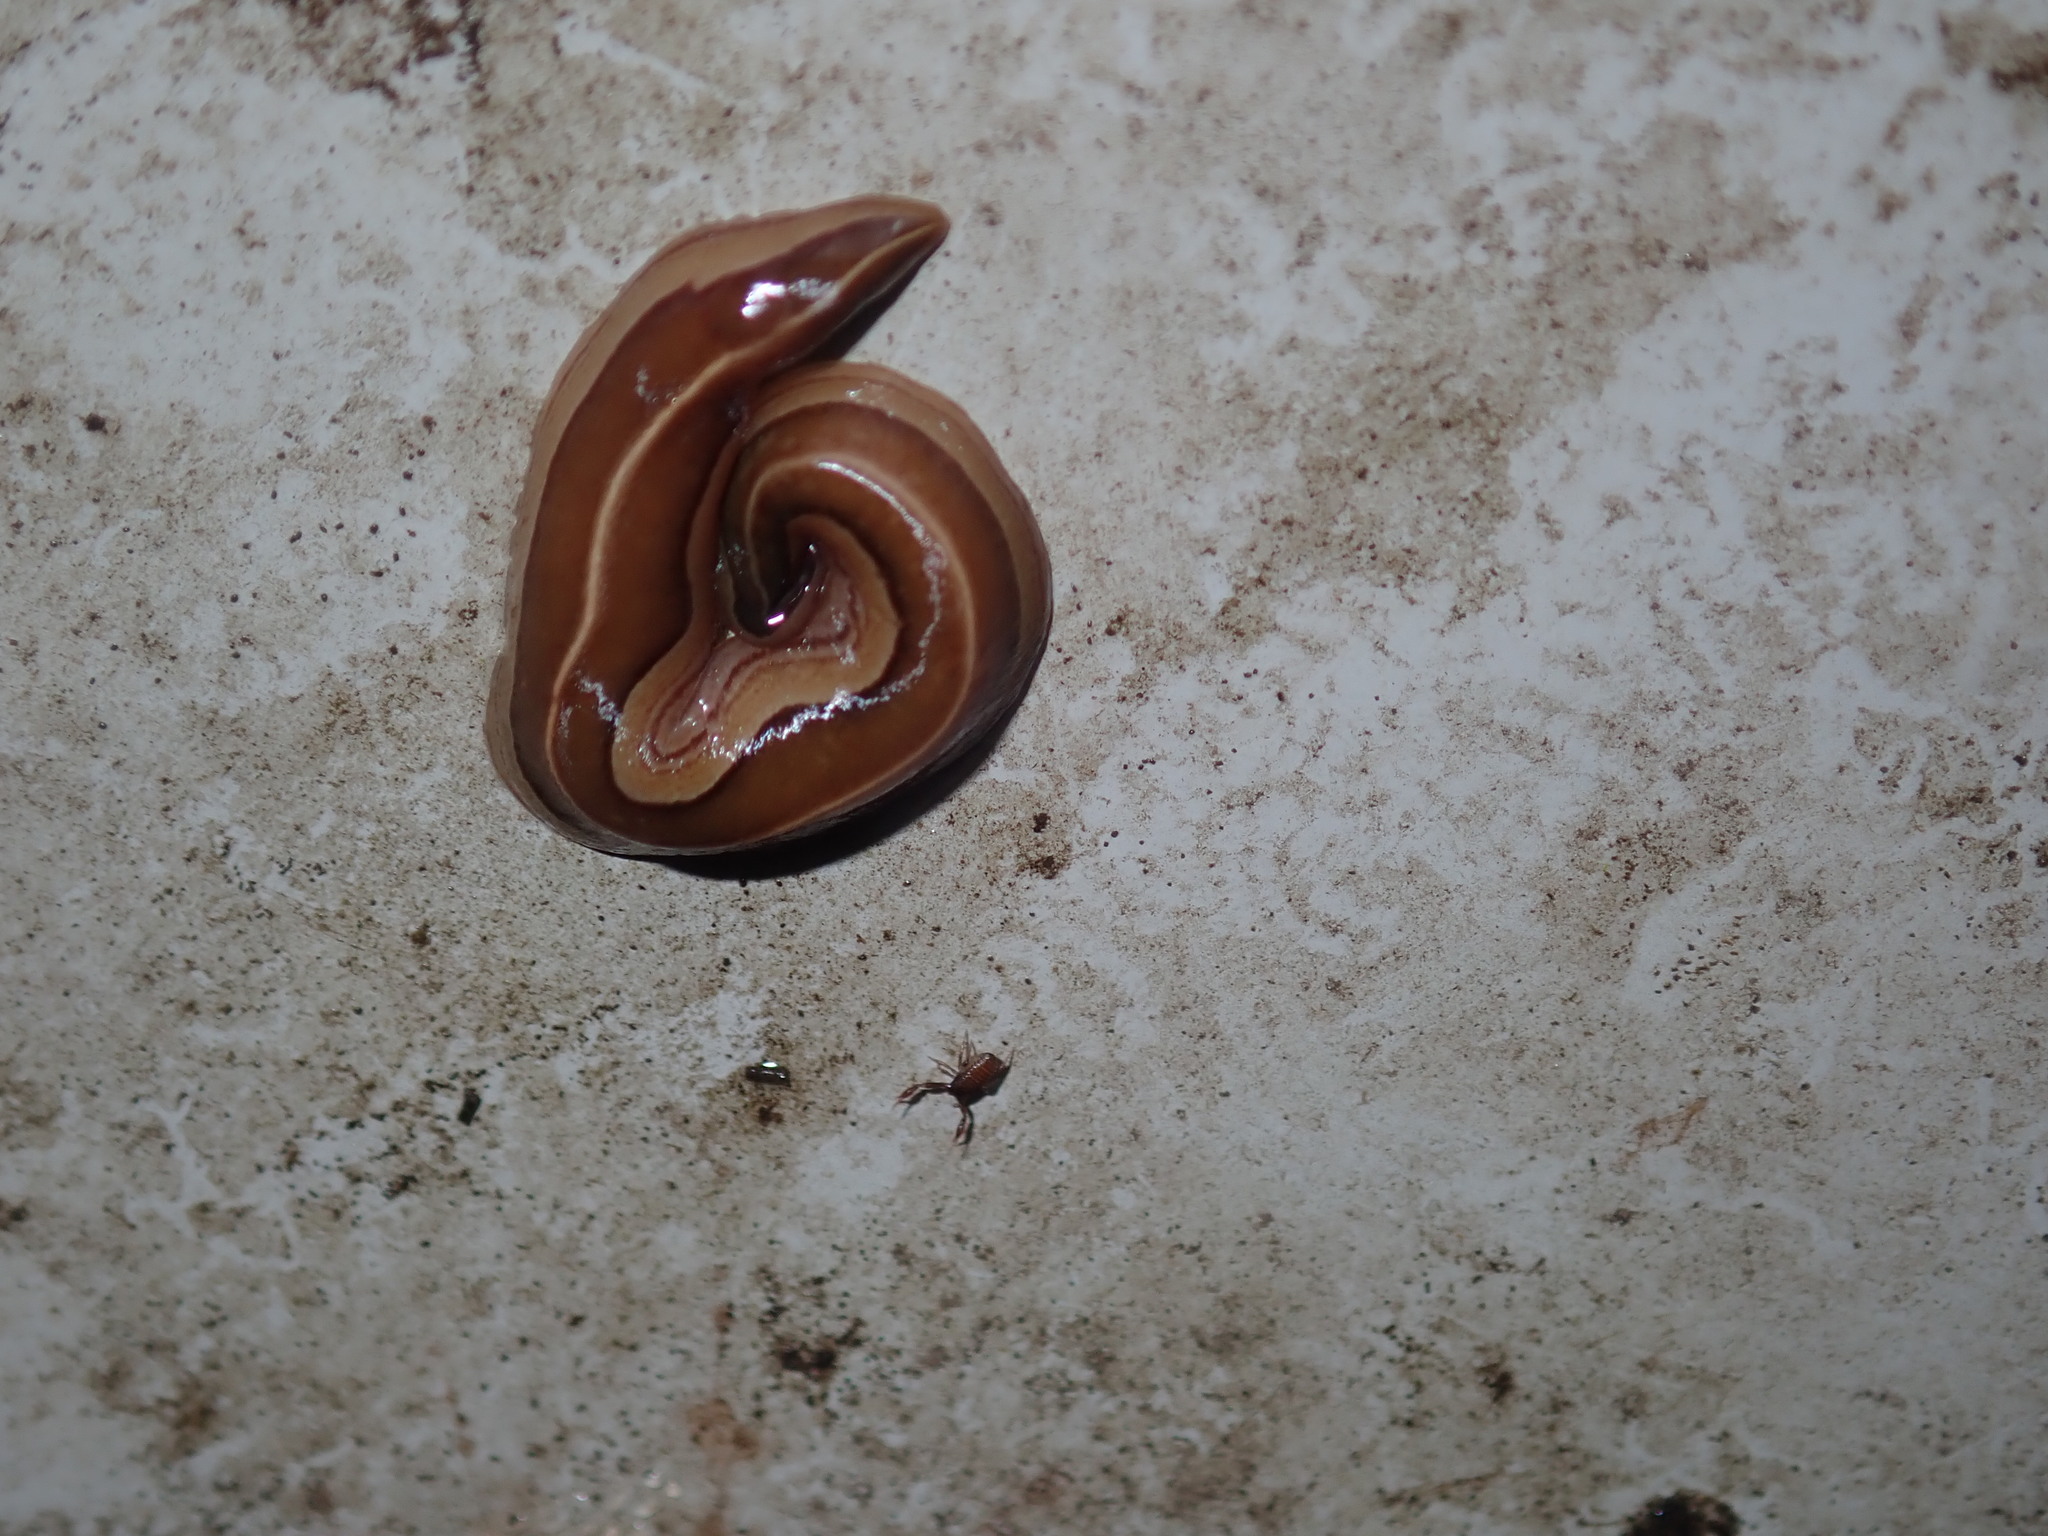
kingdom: Animalia
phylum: Platyhelminthes
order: Tricladida
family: Geoplanidae
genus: Australopacifica
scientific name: Australopacifica scaphoidea
